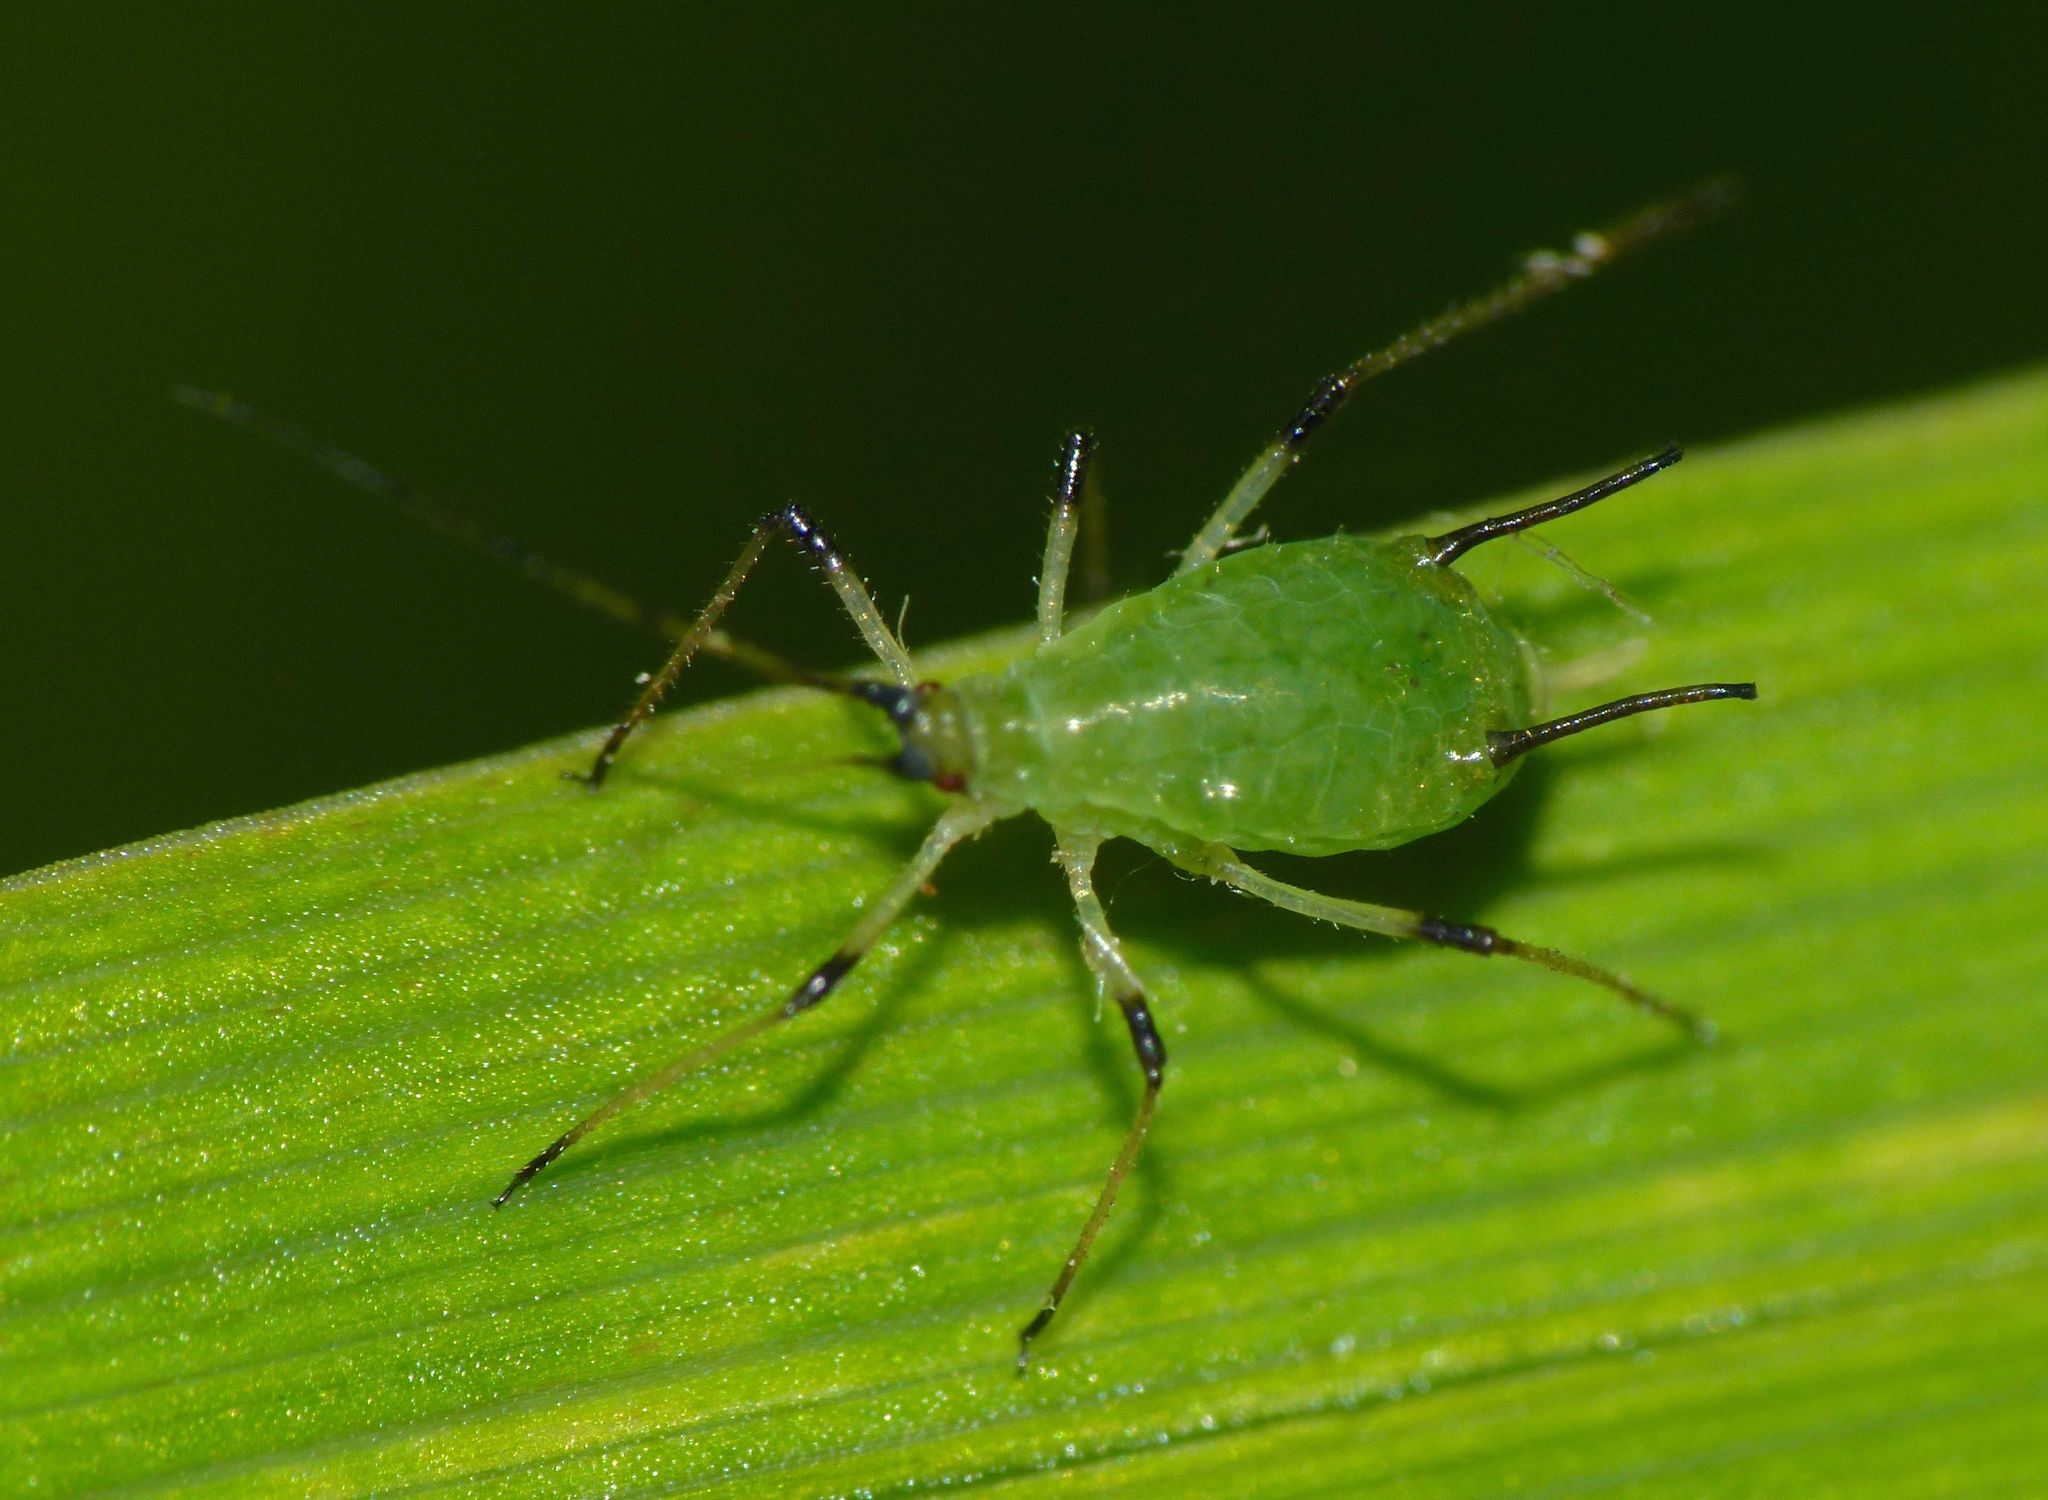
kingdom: Animalia
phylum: Arthropoda
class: Insecta
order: Hemiptera
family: Aphididae
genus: Macrosiphum
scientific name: Macrosiphum rosae
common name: Rose aphid
